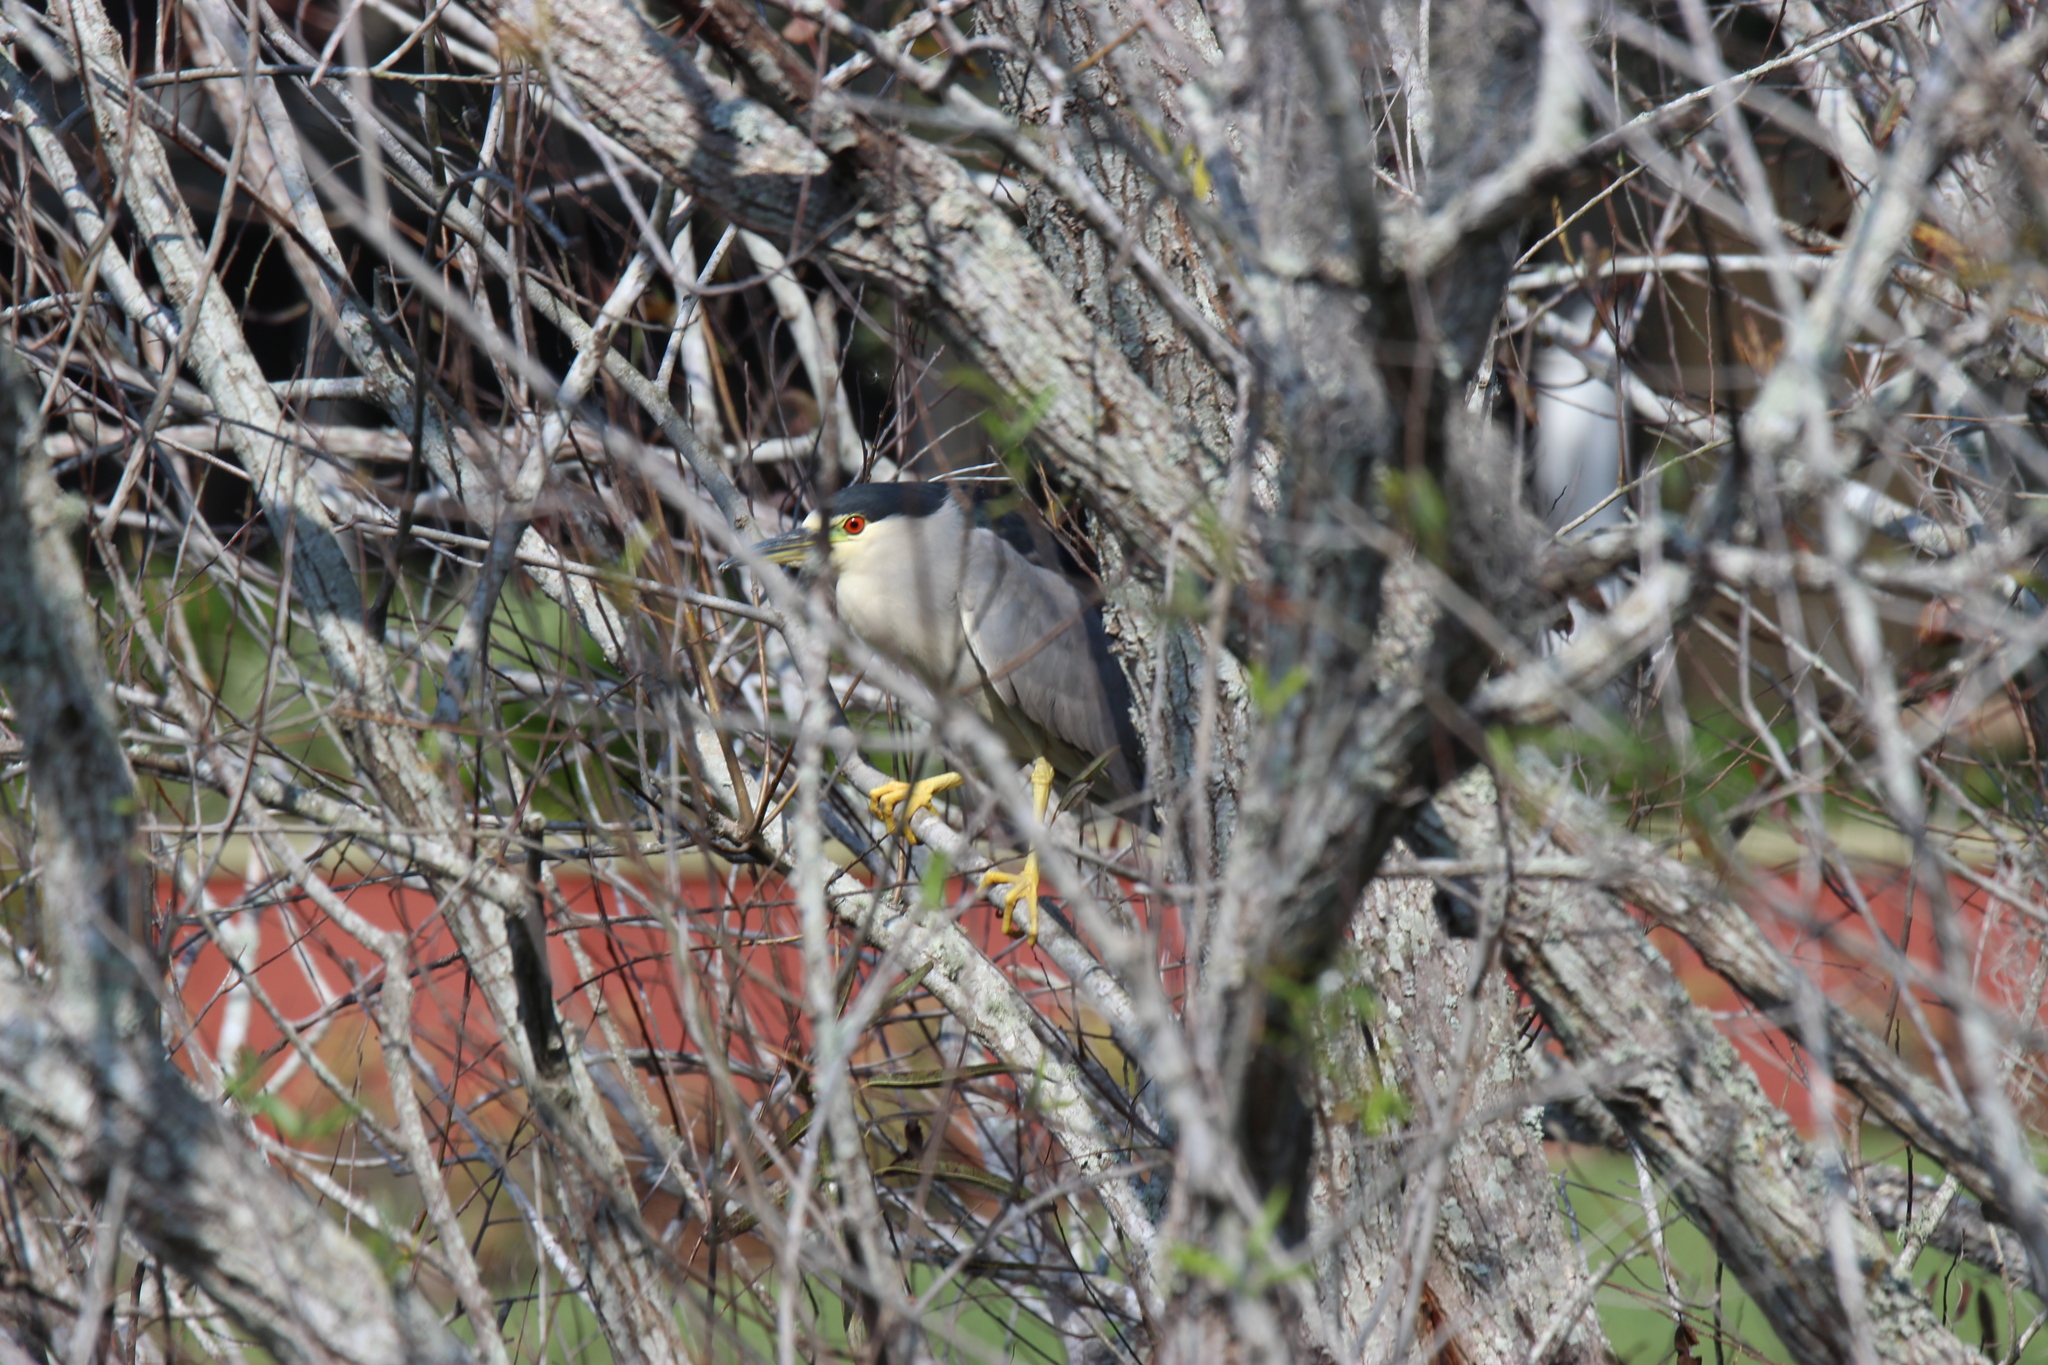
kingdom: Animalia
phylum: Chordata
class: Aves
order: Pelecaniformes
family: Ardeidae
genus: Nycticorax
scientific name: Nycticorax nycticorax
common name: Black-crowned night heron
